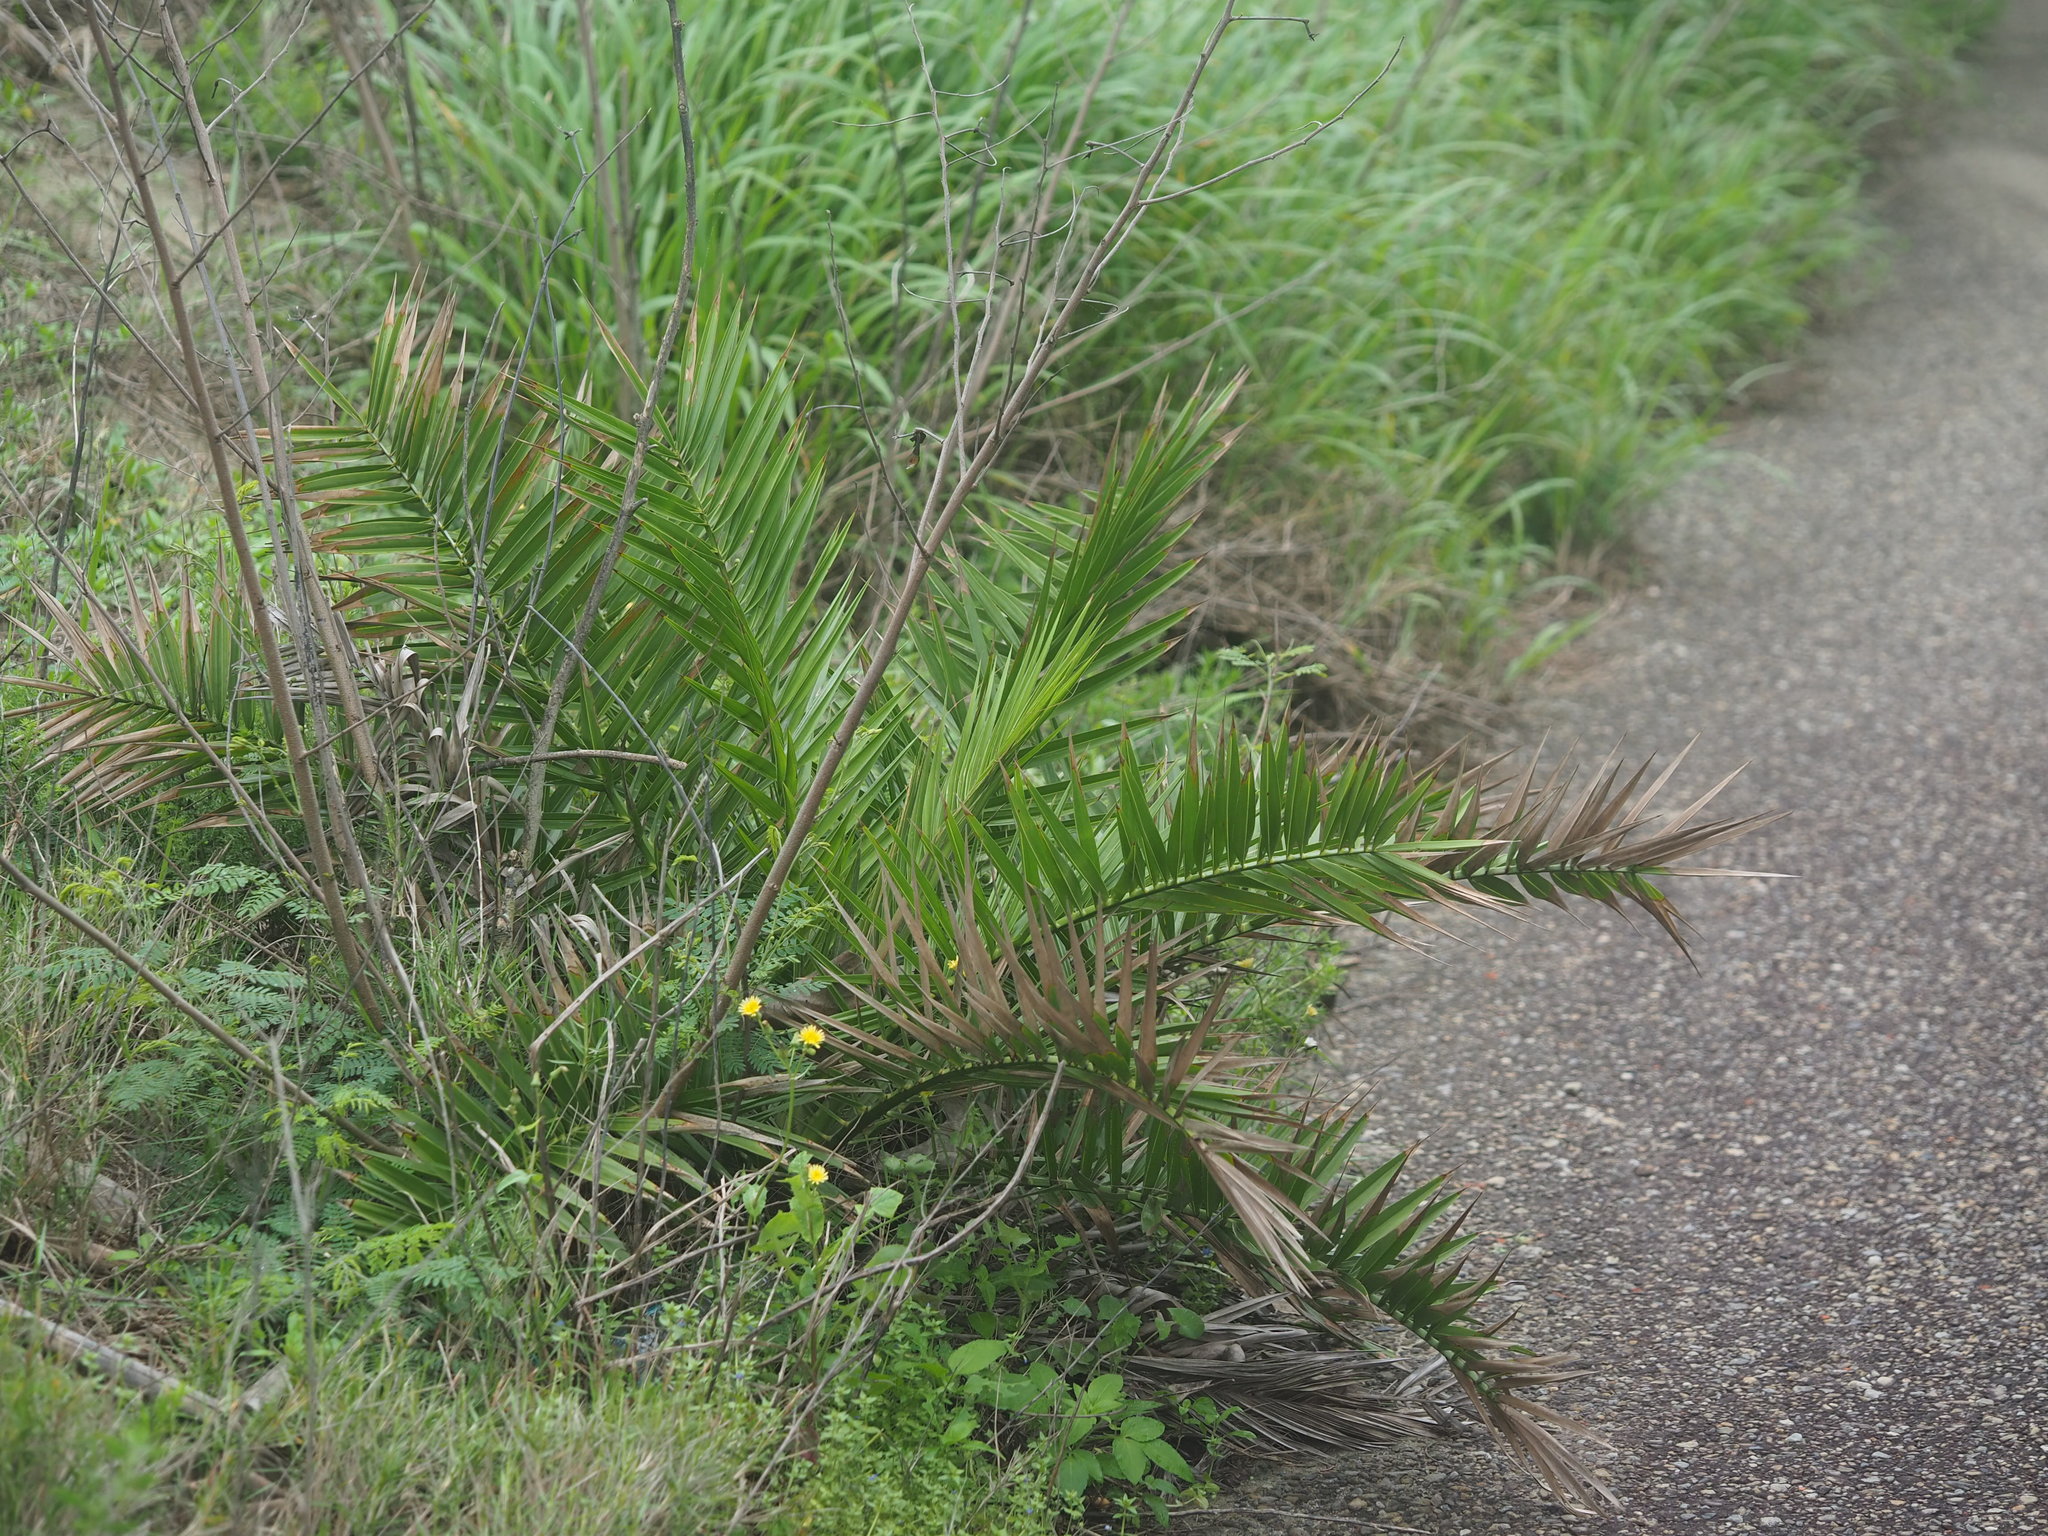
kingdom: Plantae
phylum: Tracheophyta
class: Liliopsida
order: Arecales
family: Arecaceae
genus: Phoenix
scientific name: Phoenix loureiroi
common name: Loureiro's palm
